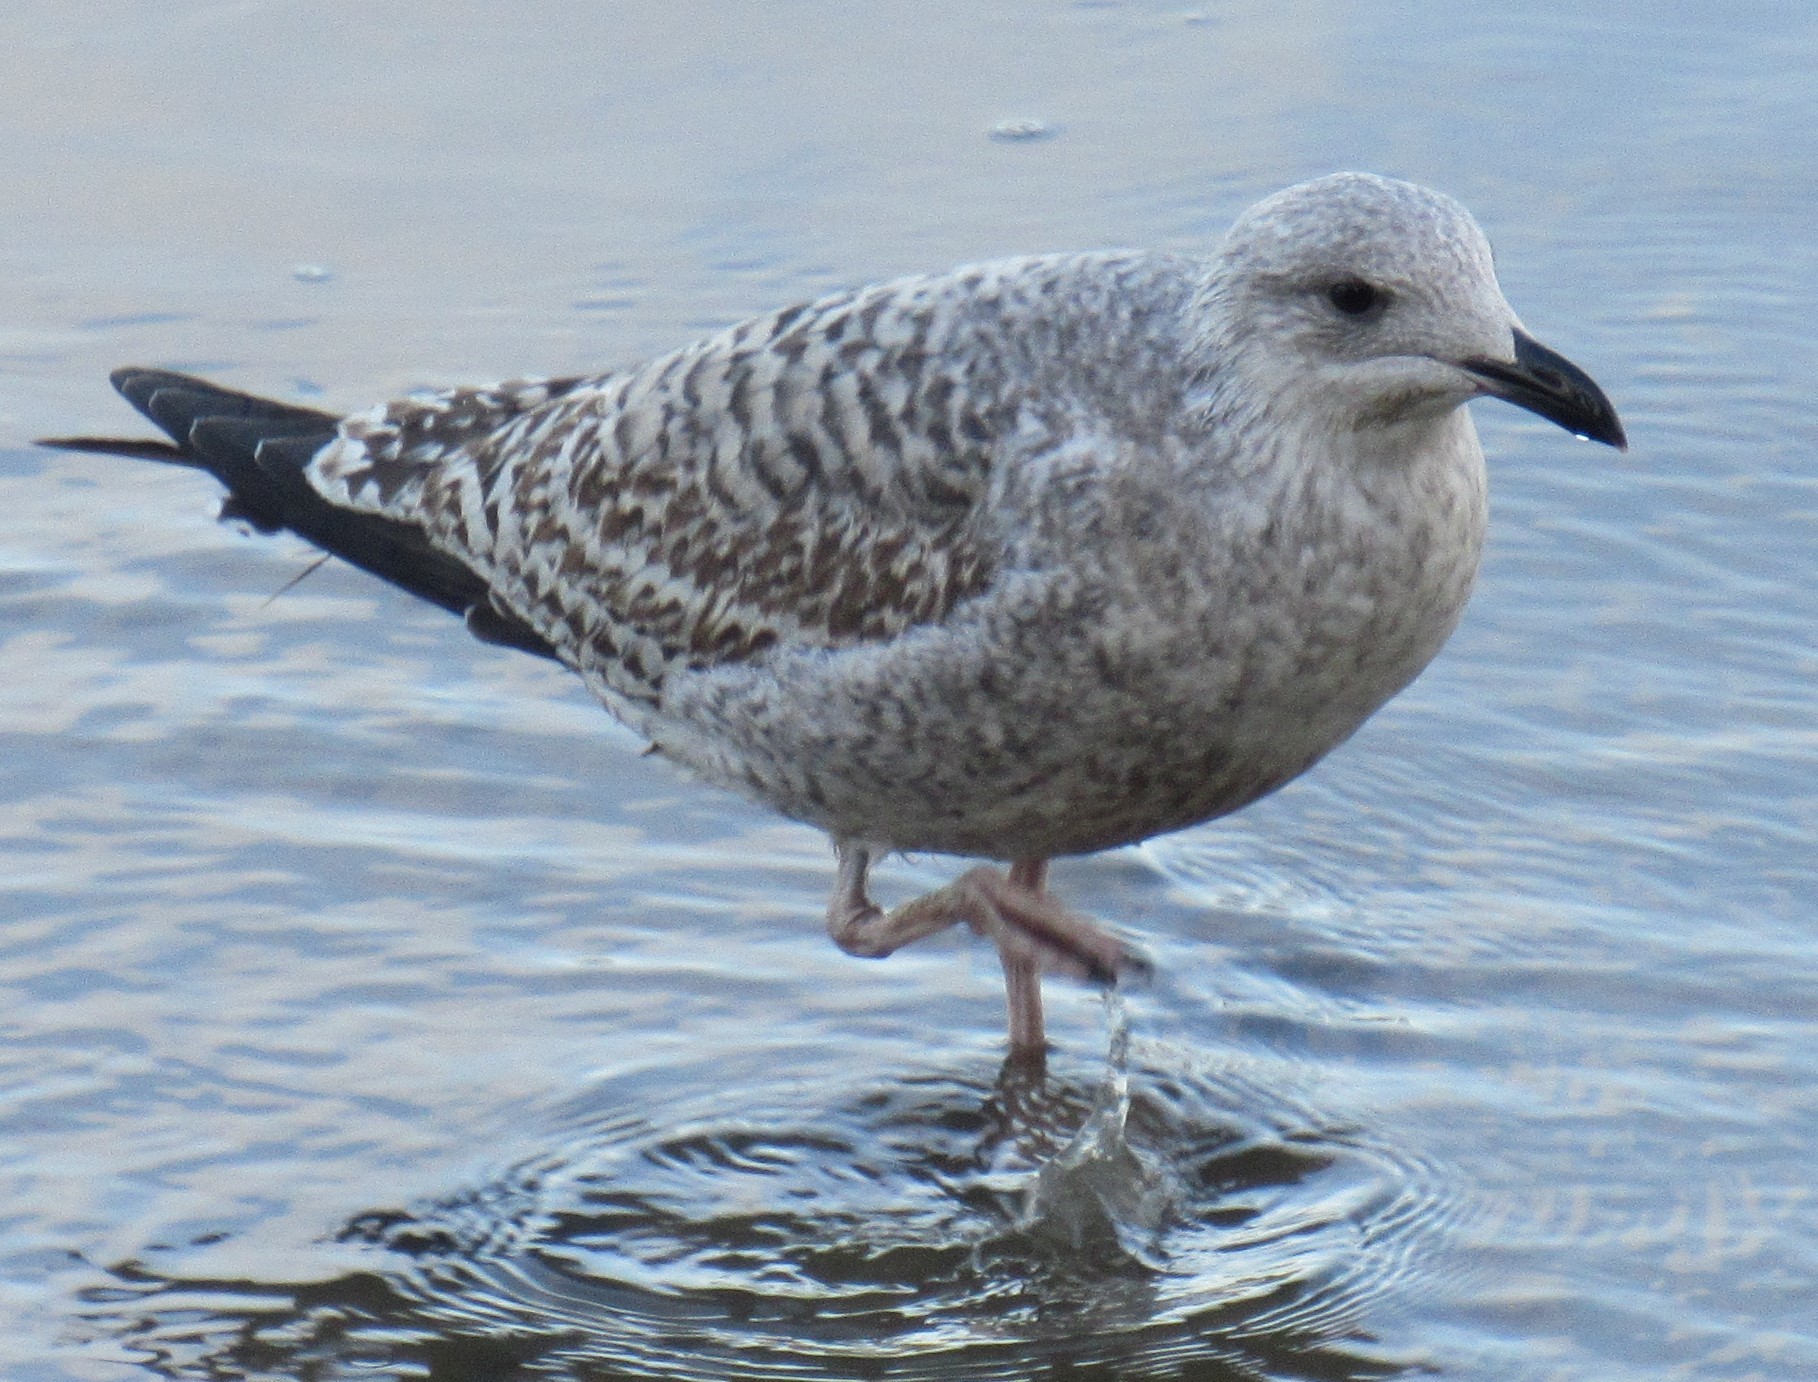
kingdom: Animalia
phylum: Chordata
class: Aves
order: Charadriiformes
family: Laridae
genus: Larus
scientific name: Larus argentatus
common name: Herring gull
